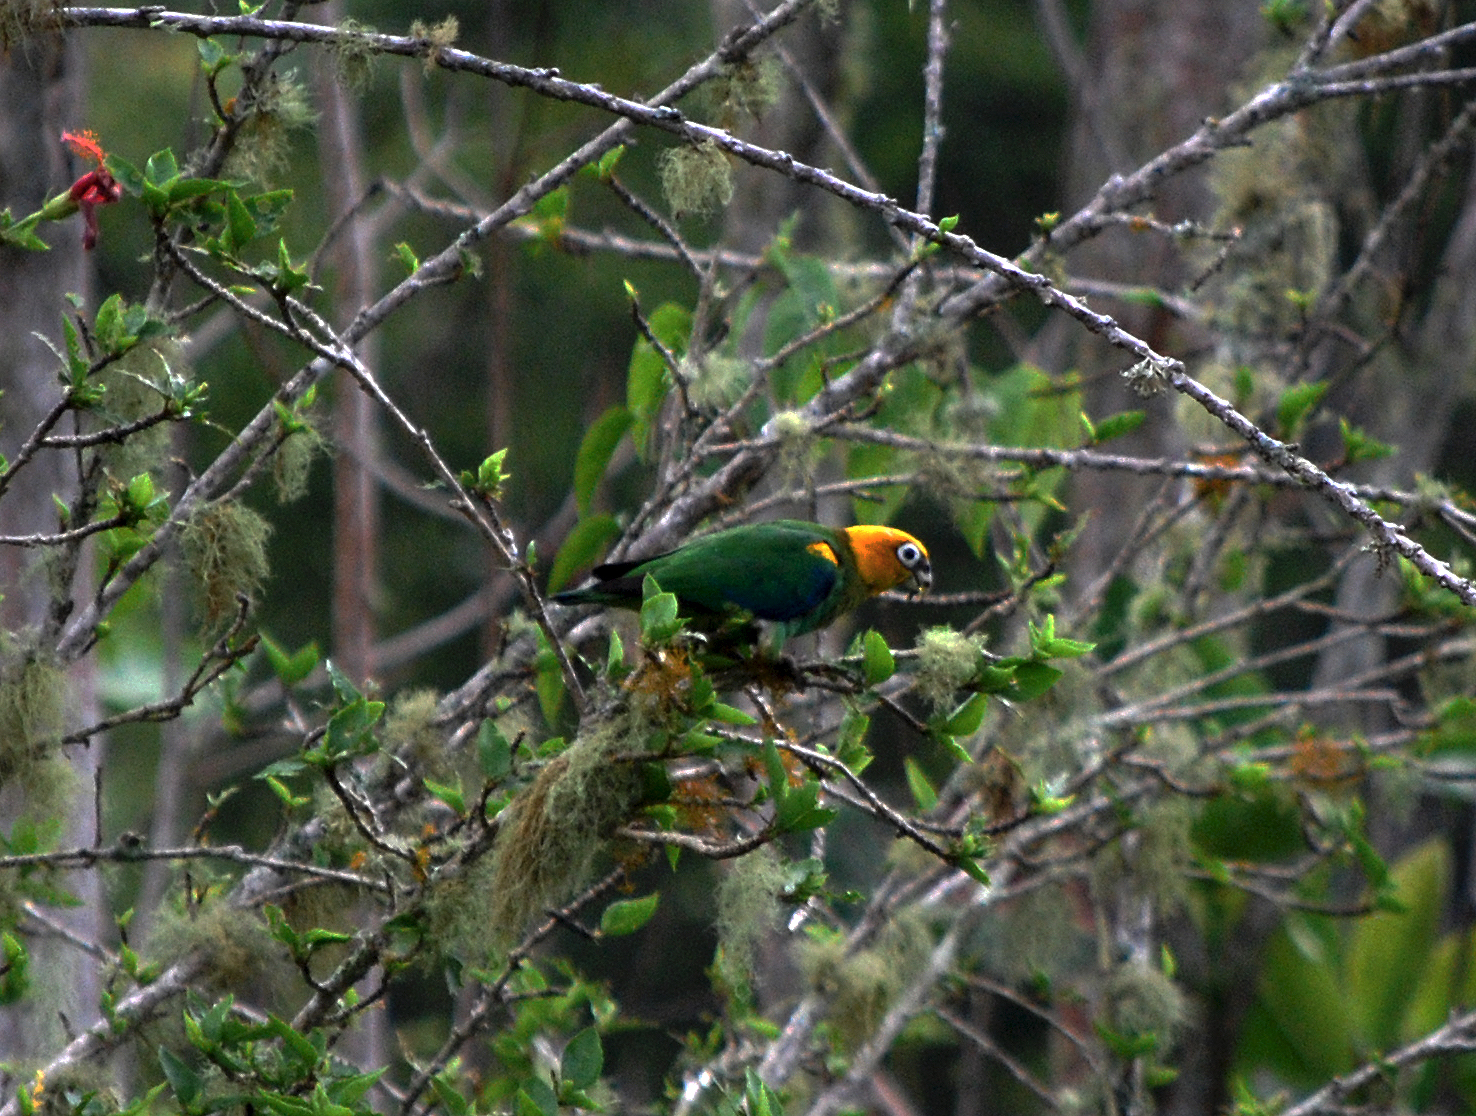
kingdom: Animalia
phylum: Chordata
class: Aves
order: Psittaciformes
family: Psittacidae
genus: Pionopsitta
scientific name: Pionopsitta pyrilia
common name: Saffron-headed parrot
